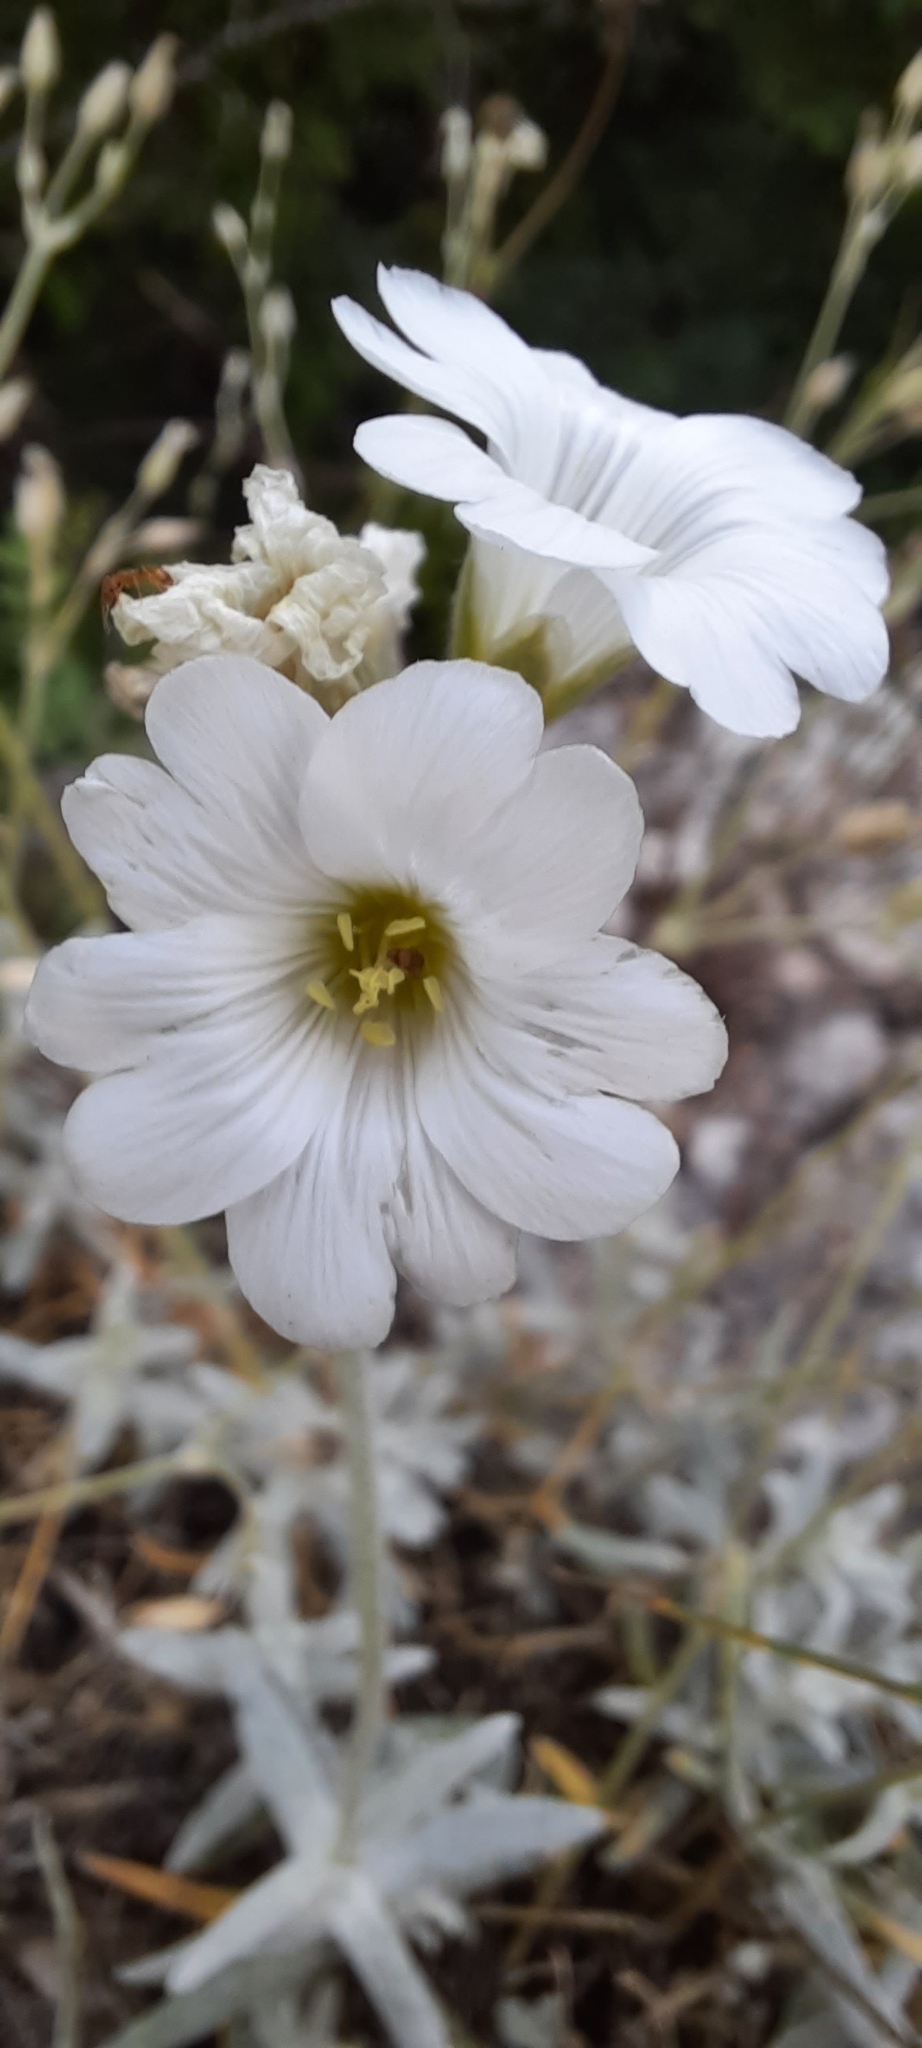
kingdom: Plantae
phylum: Tracheophyta
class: Magnoliopsida
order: Caryophyllales
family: Caryophyllaceae
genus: Cerastium
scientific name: Cerastium biebersteinii
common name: Snow-in-summer
